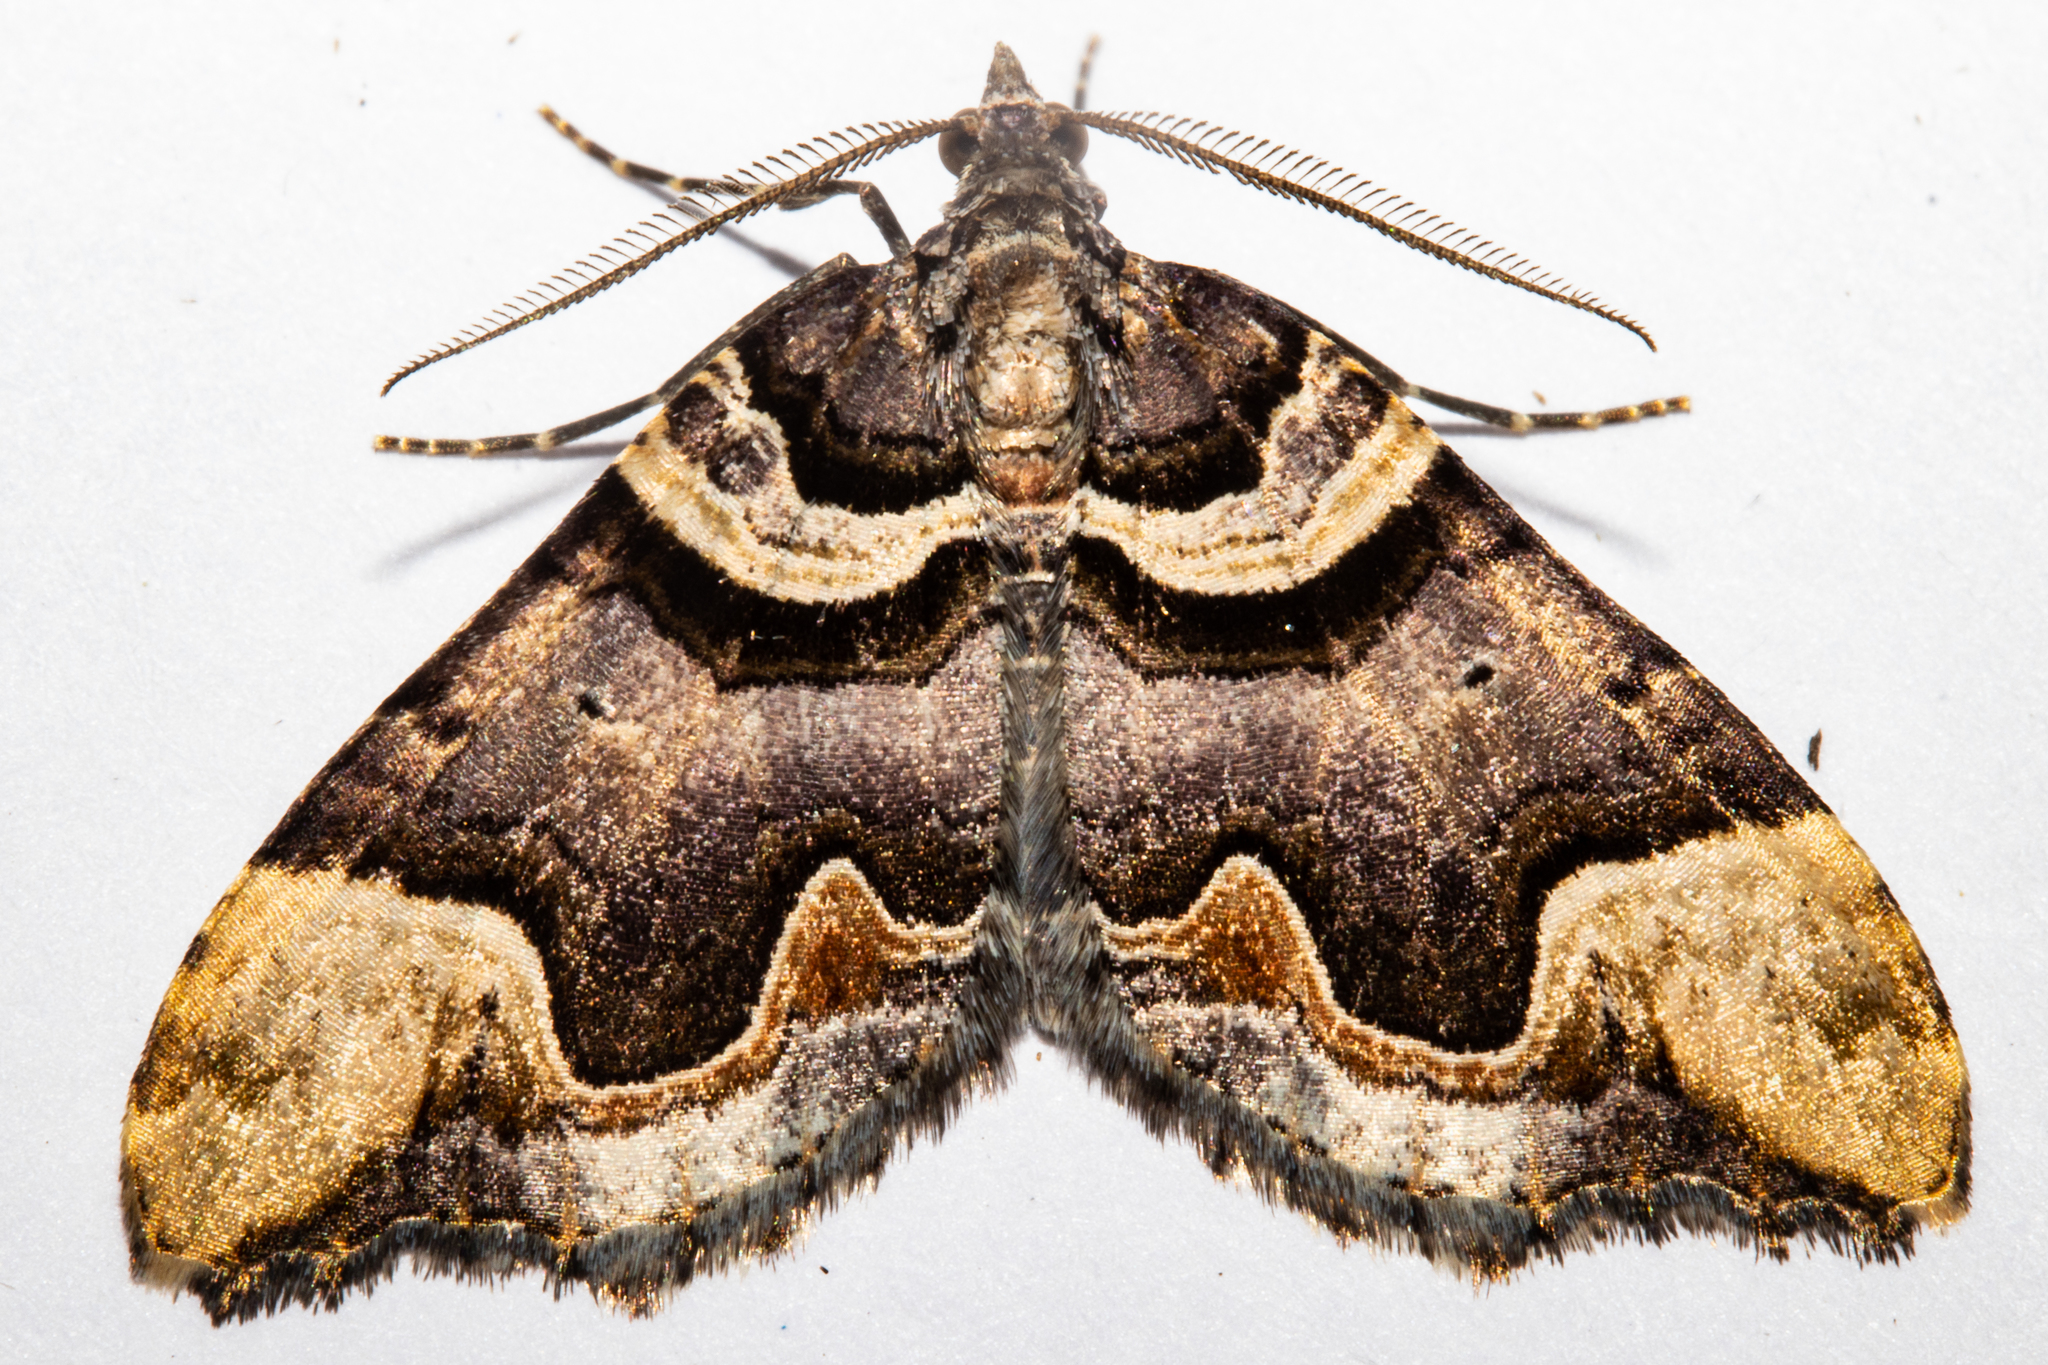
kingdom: Animalia
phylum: Arthropoda
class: Insecta
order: Lepidoptera
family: Geometridae
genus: Asaphodes
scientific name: Asaphodes chlamydota
